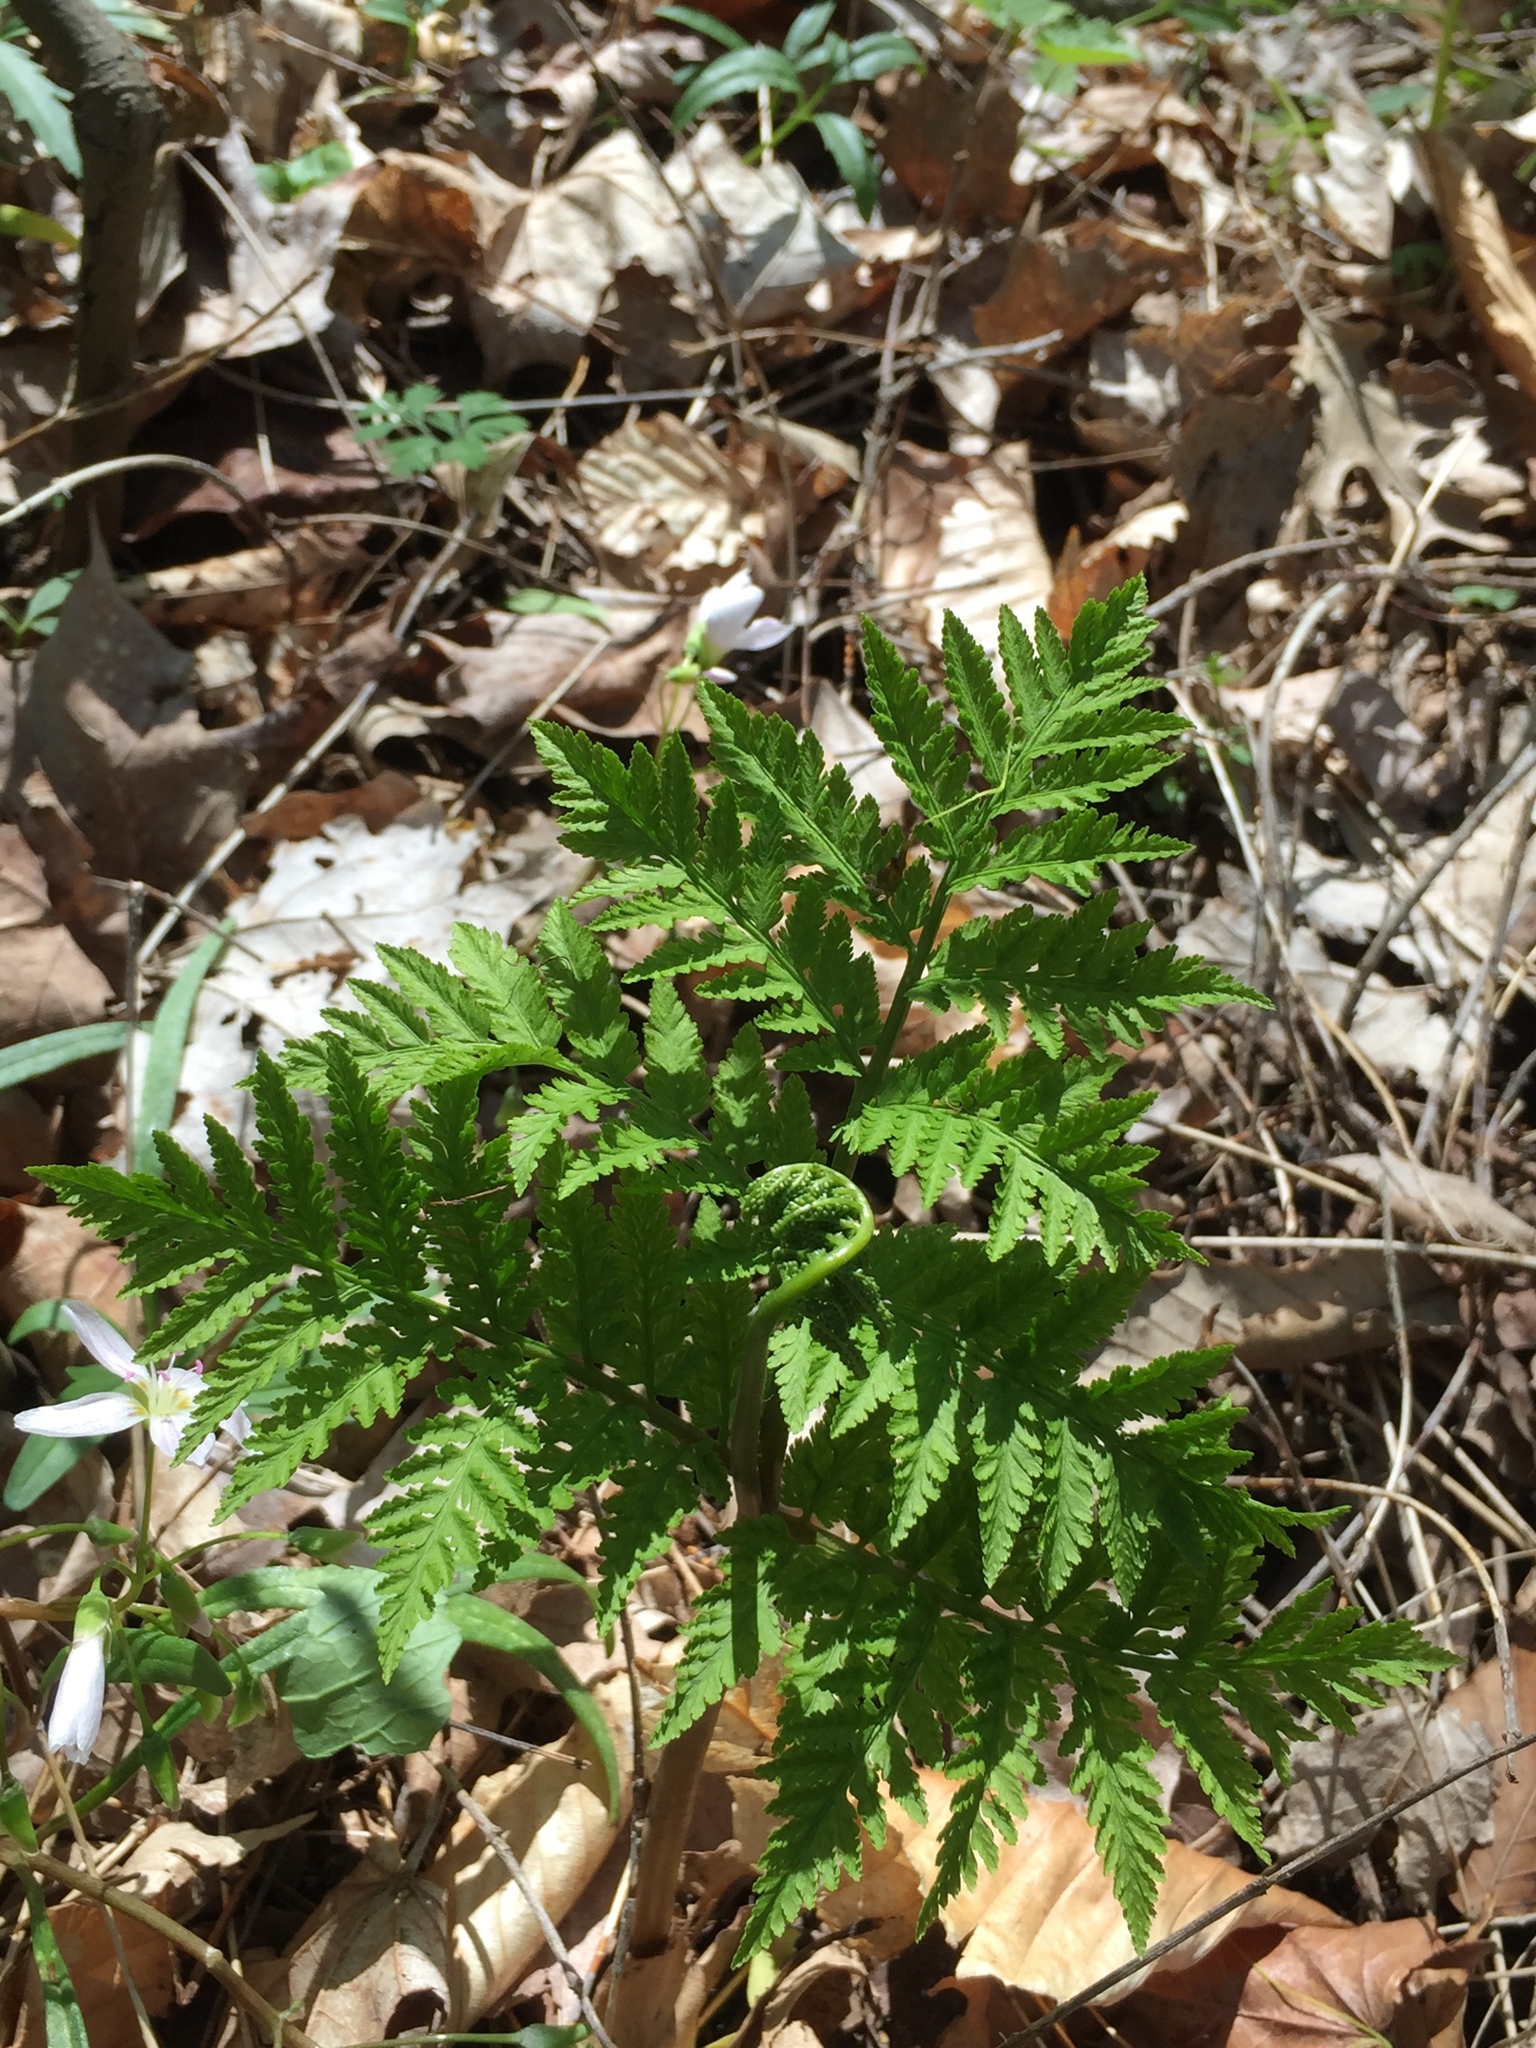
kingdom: Plantae
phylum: Tracheophyta
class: Polypodiopsida
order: Ophioglossales
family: Ophioglossaceae
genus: Botrypus
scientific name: Botrypus virginianus
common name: Common grapefern
